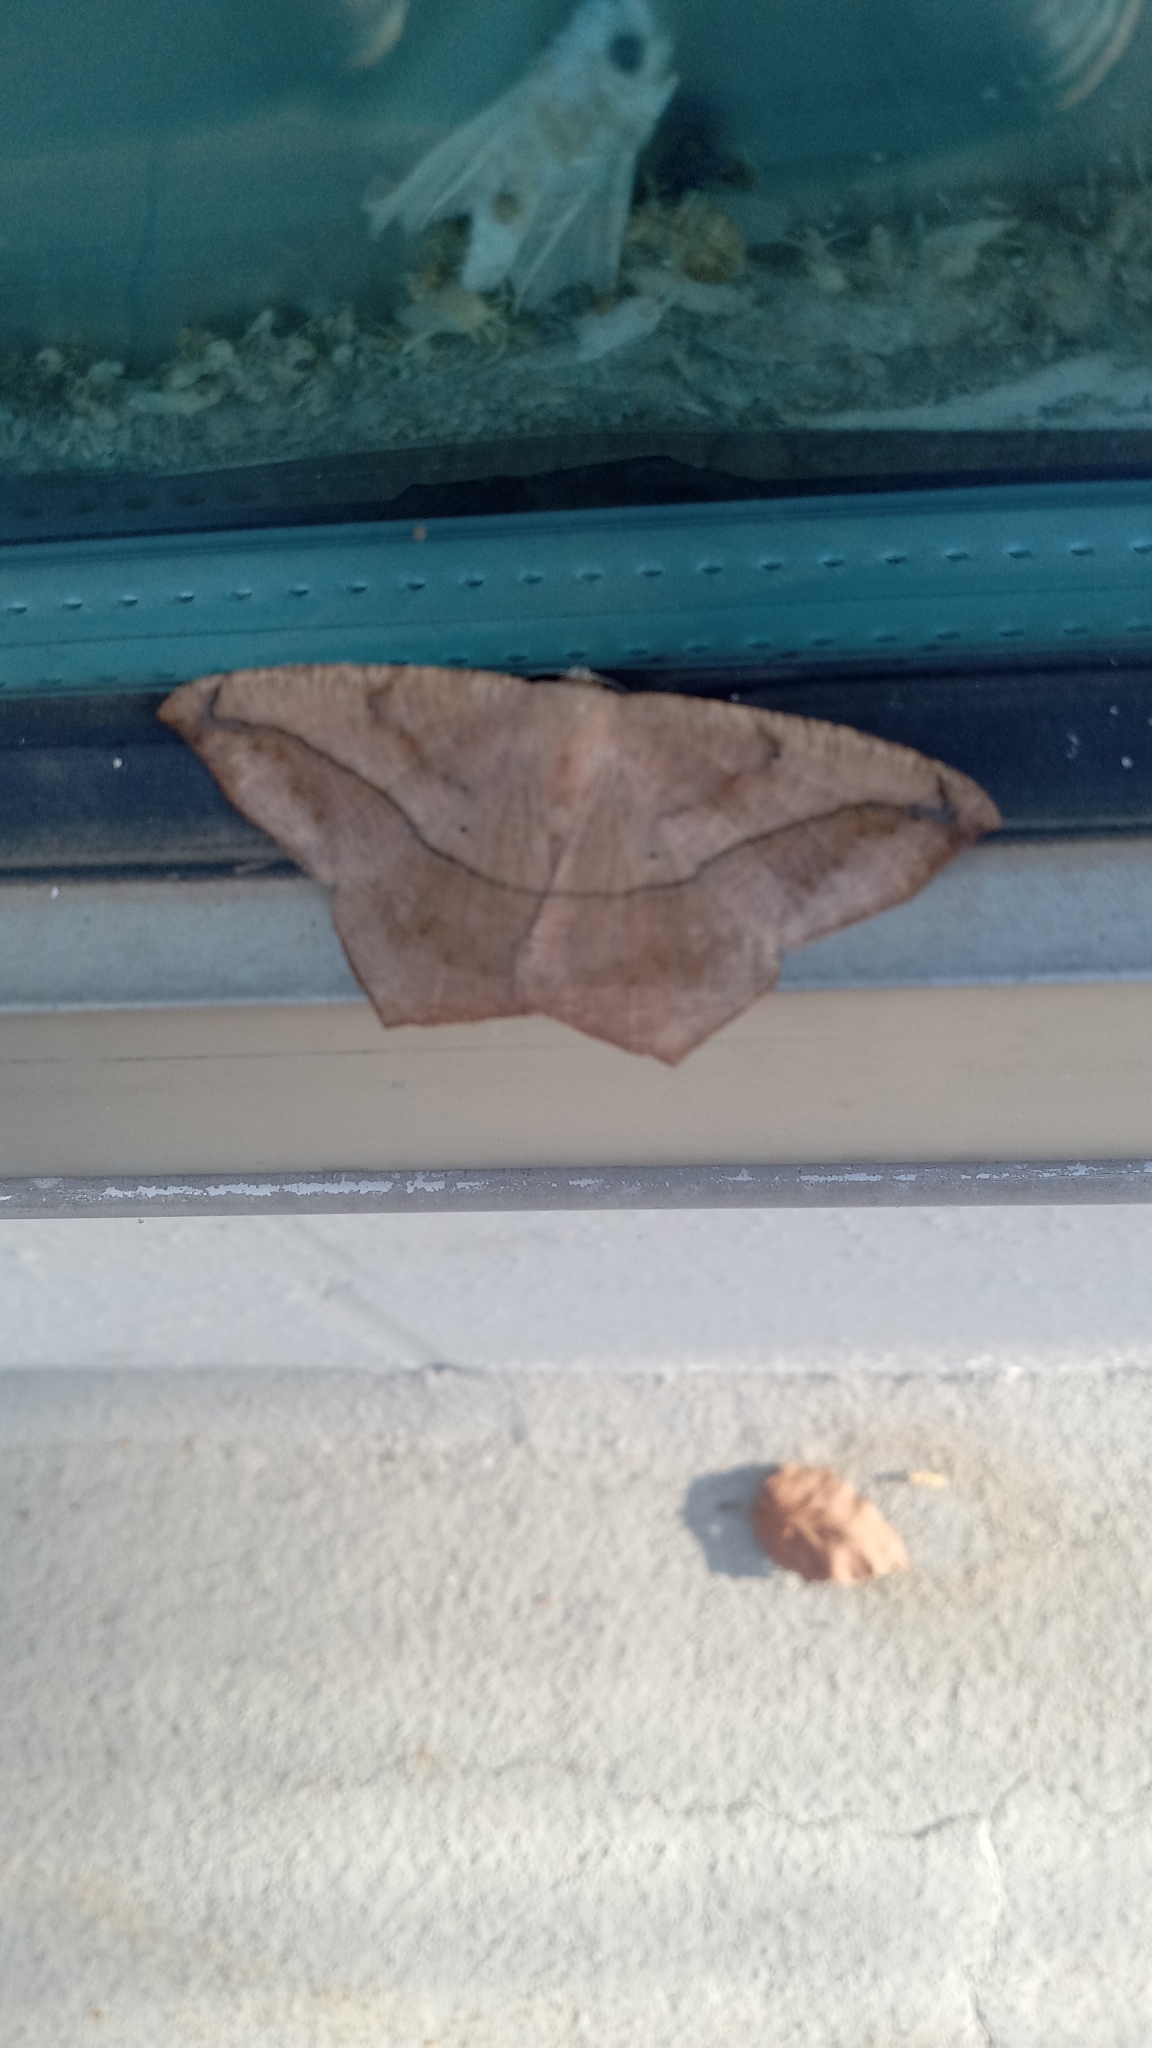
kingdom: Animalia
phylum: Arthropoda
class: Insecta
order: Lepidoptera
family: Geometridae
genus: Prochoerodes
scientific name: Prochoerodes lineola
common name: Large maple spanworm
